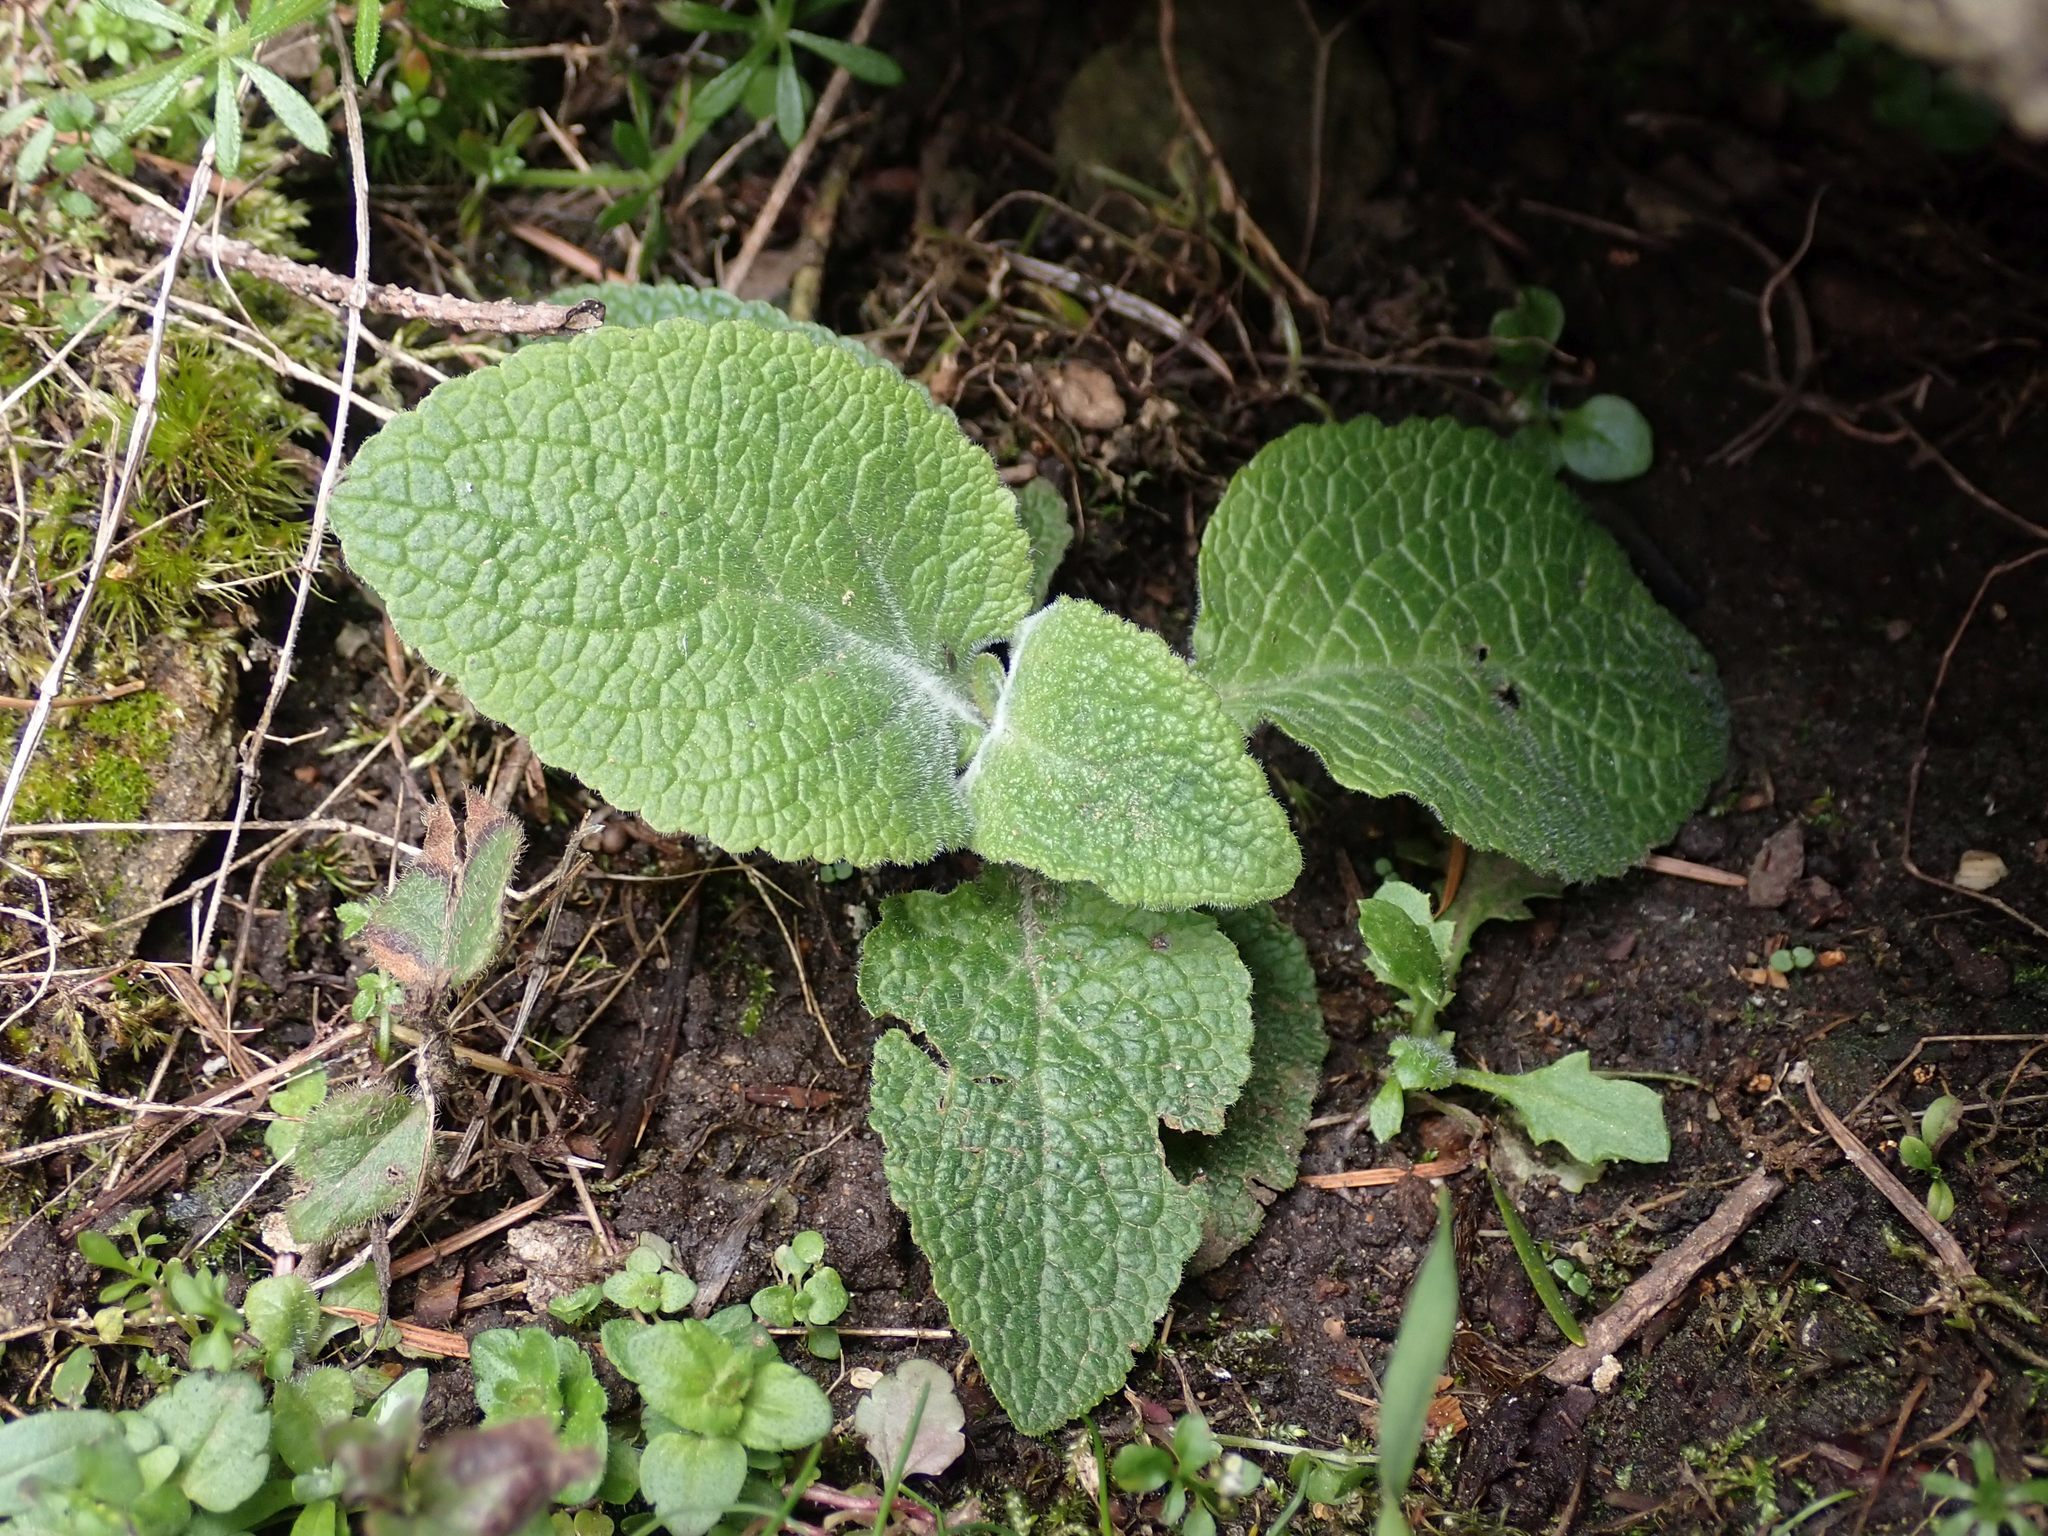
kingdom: Plantae
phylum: Tracheophyta
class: Magnoliopsida
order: Lamiales
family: Plantaginaceae
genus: Digitalis
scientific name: Digitalis purpurea
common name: Foxglove
